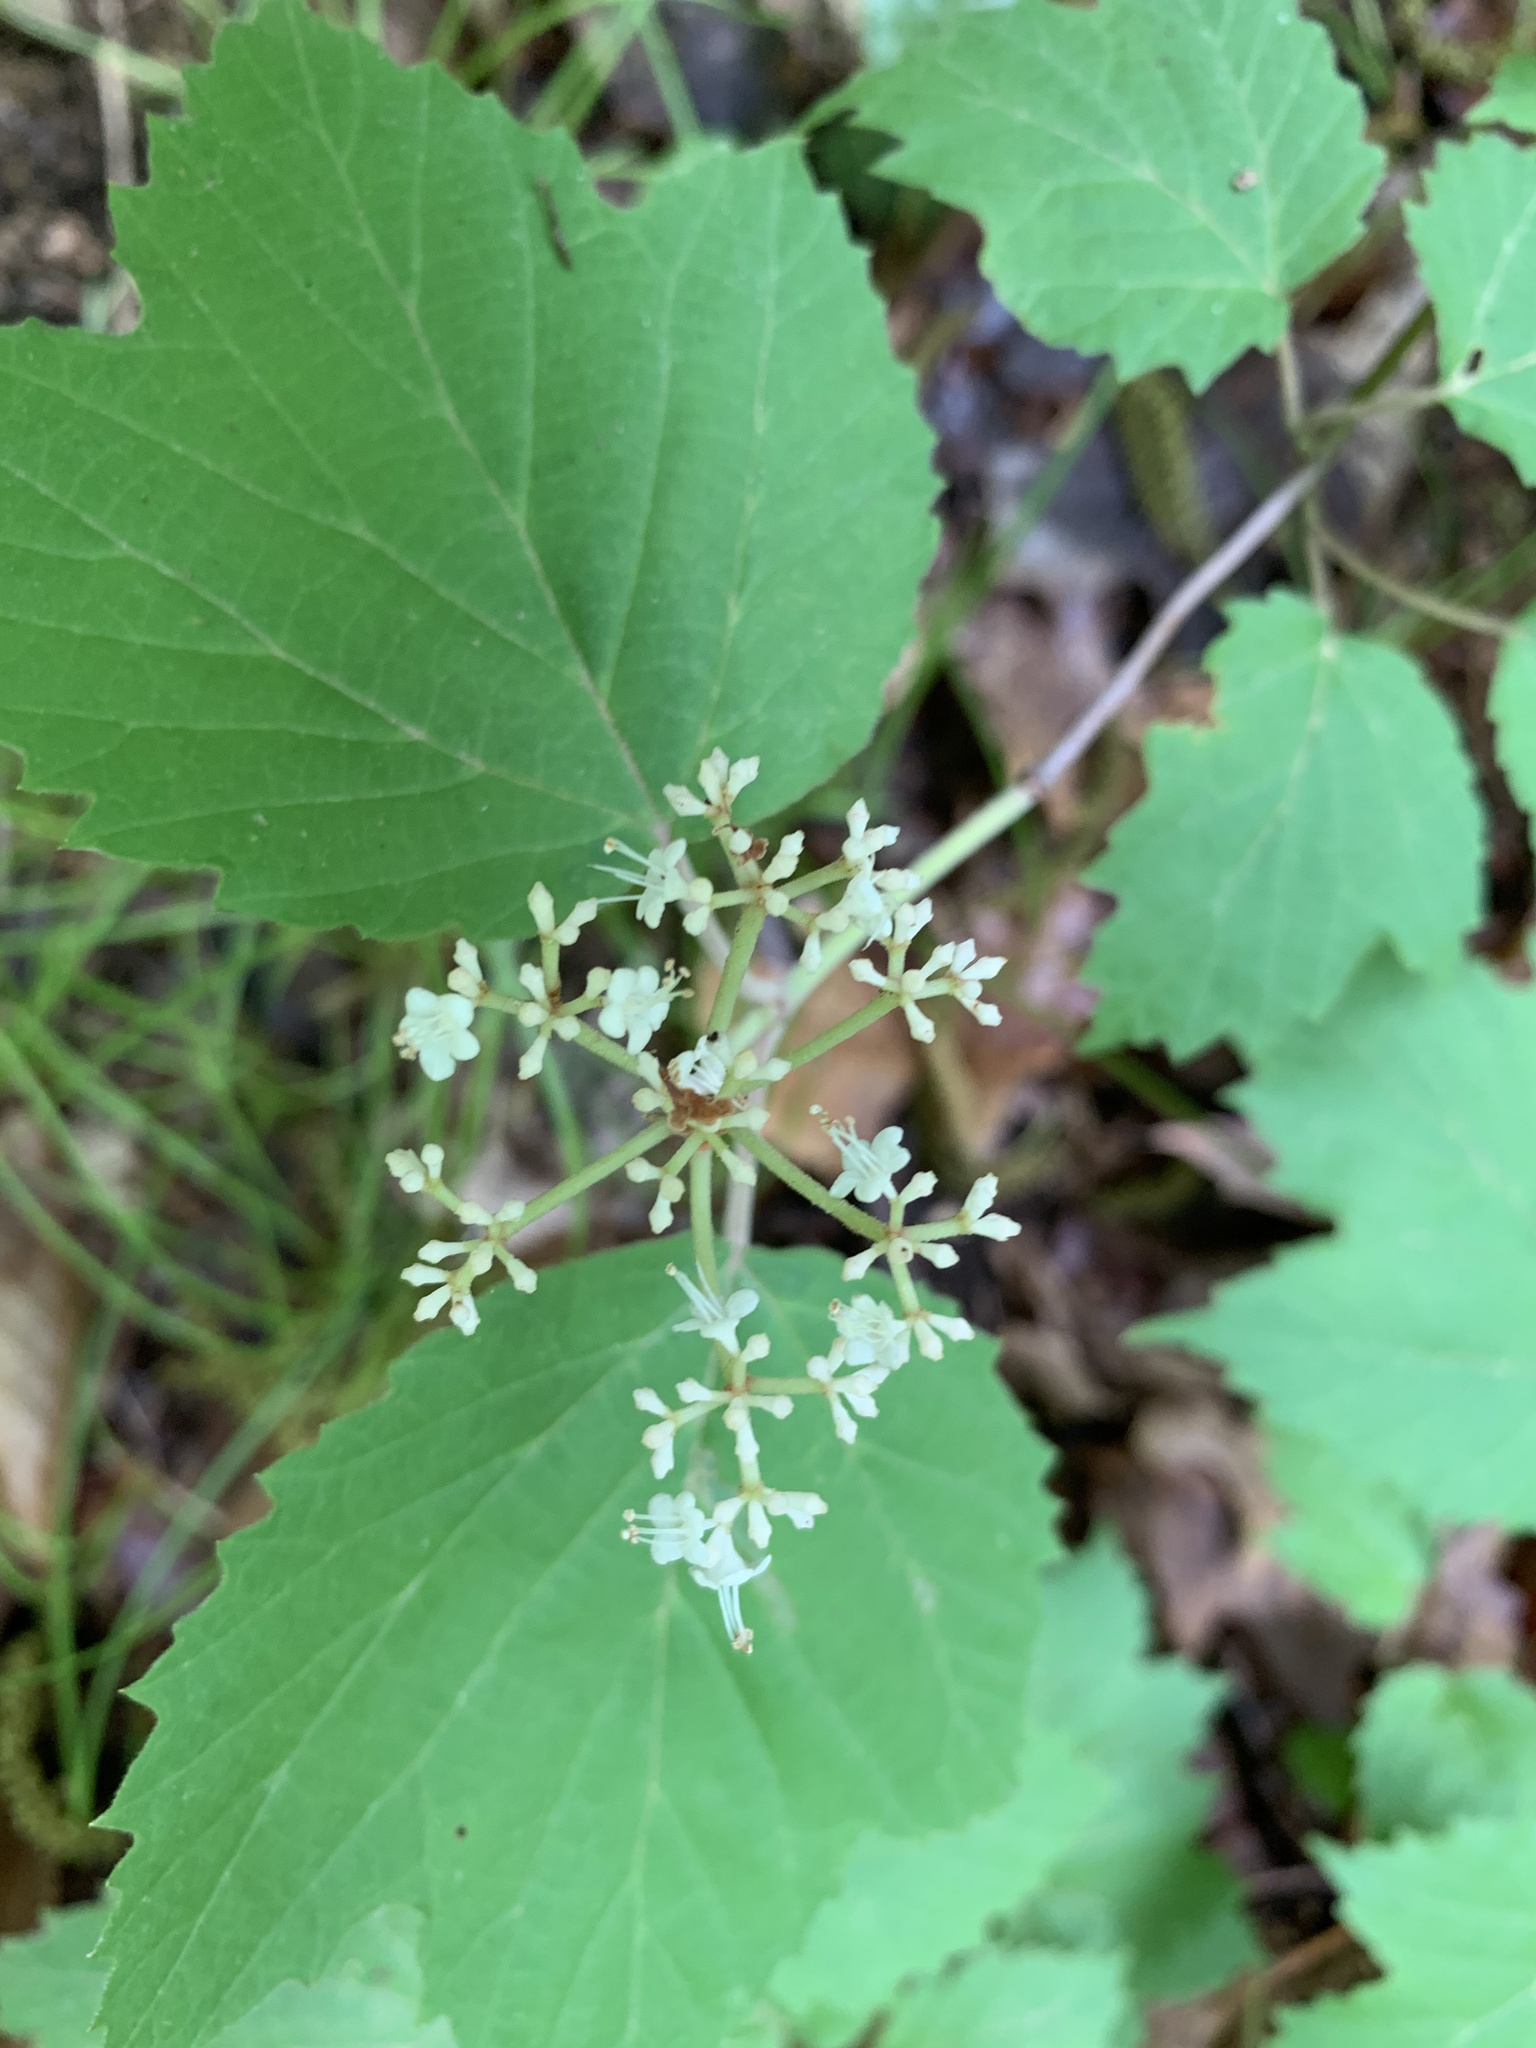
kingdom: Plantae
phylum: Tracheophyta
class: Magnoliopsida
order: Dipsacales
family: Viburnaceae
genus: Viburnum
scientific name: Viburnum acerifolium
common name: Dockmackie
